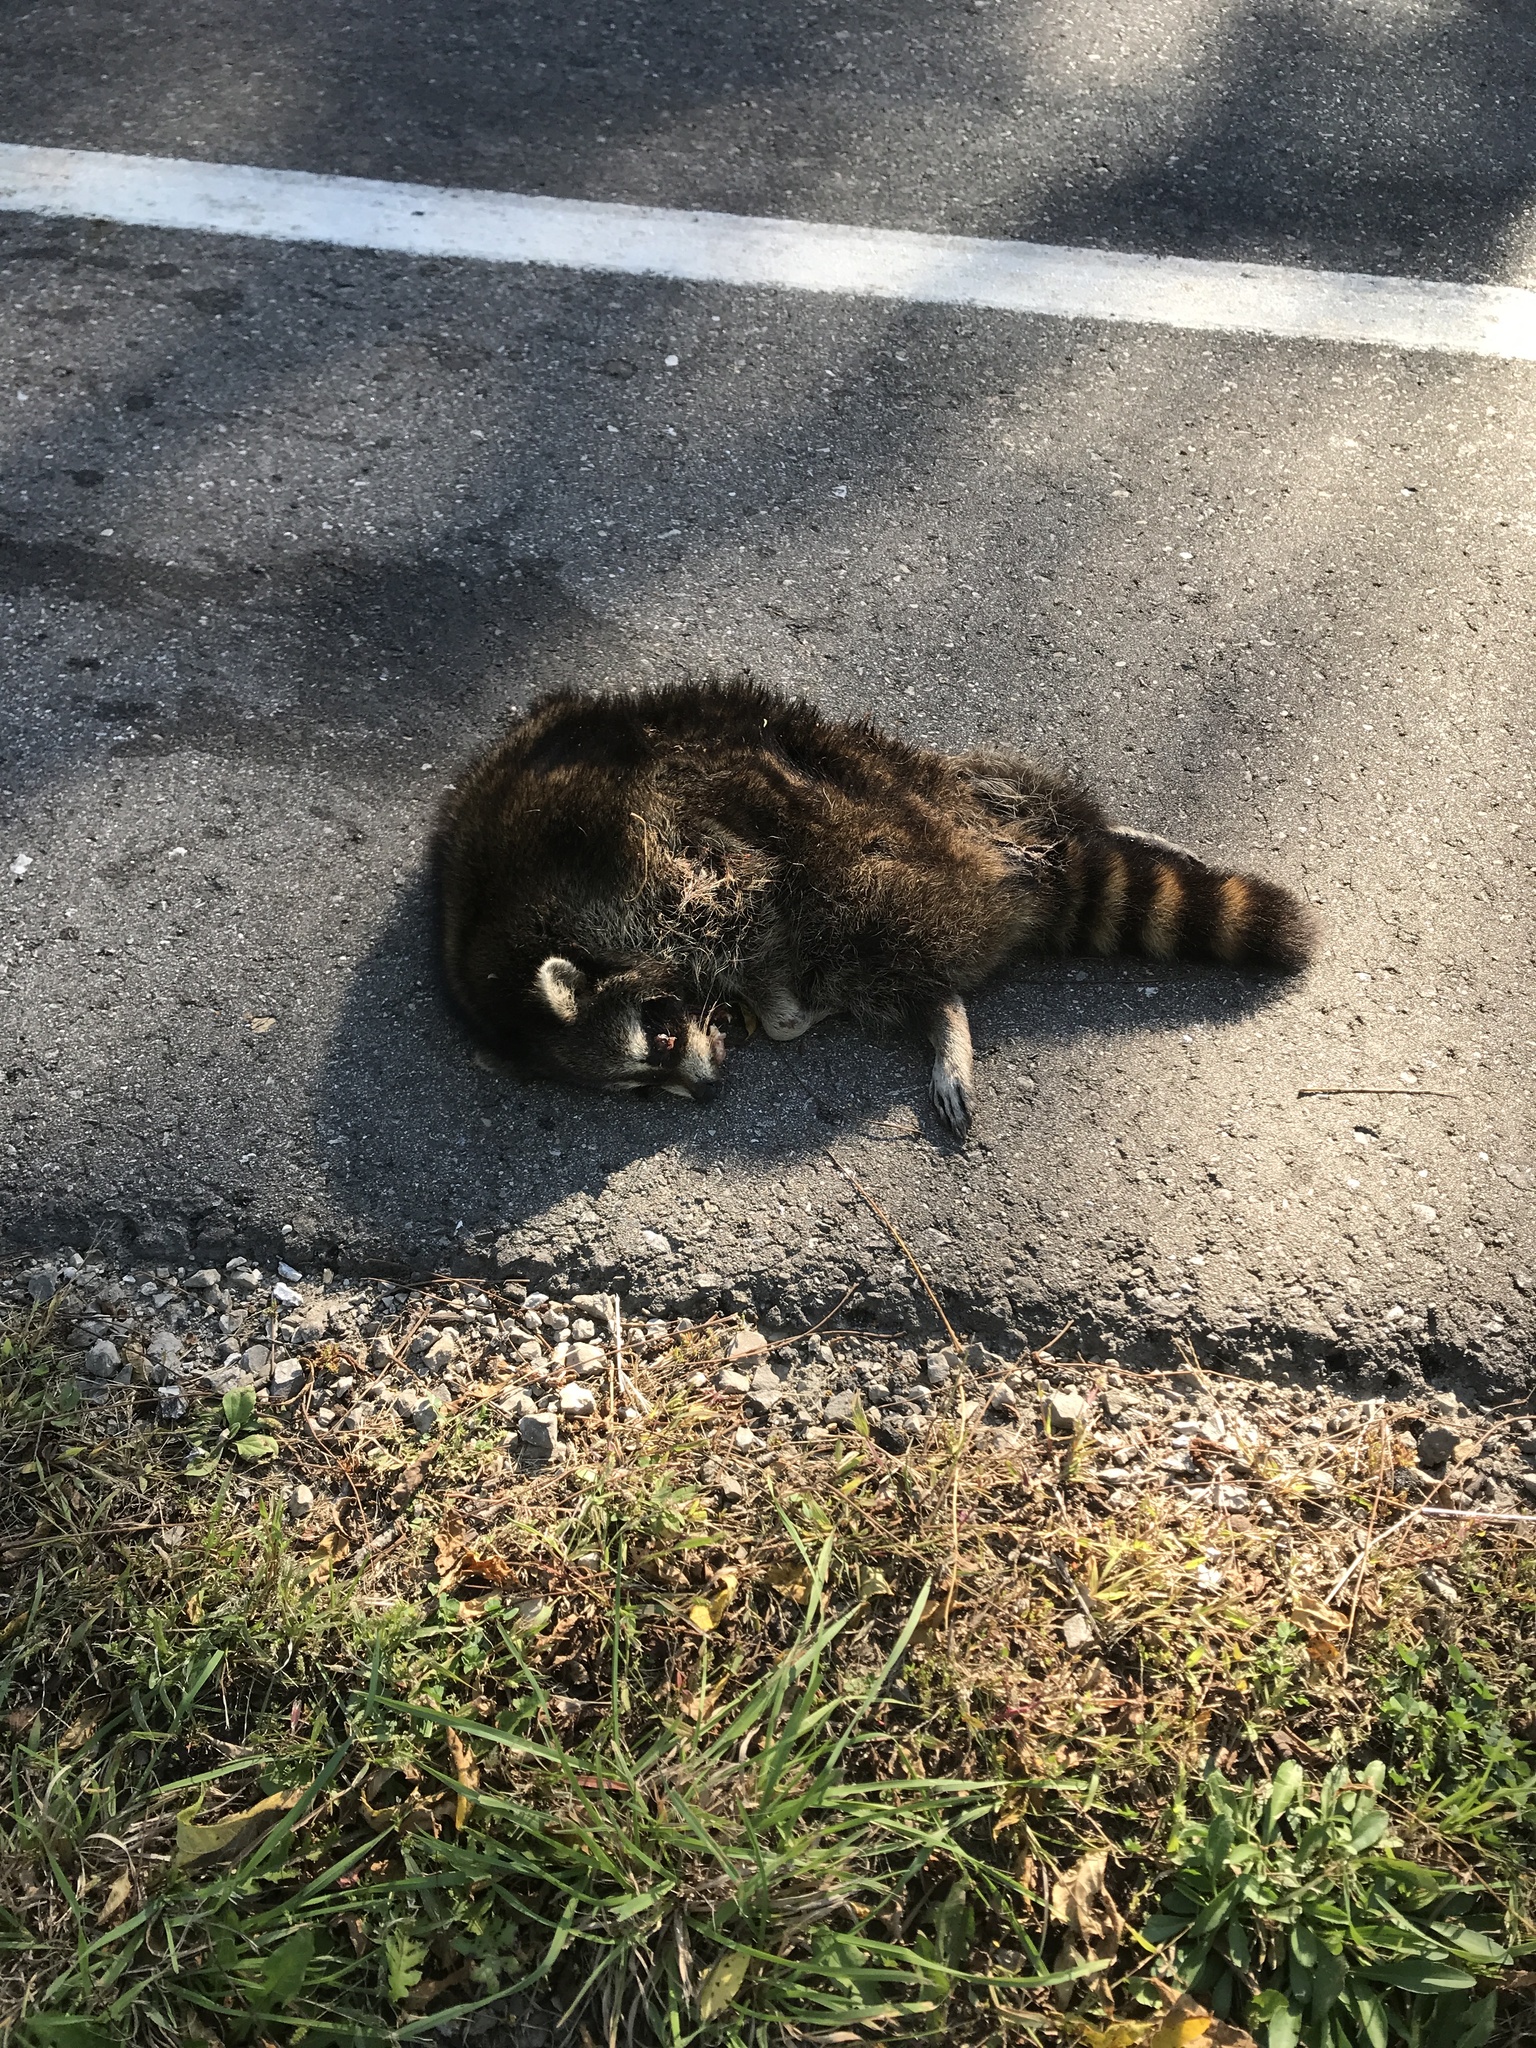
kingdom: Animalia
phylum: Chordata
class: Mammalia
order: Carnivora
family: Procyonidae
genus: Procyon
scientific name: Procyon lotor
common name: Raccoon
